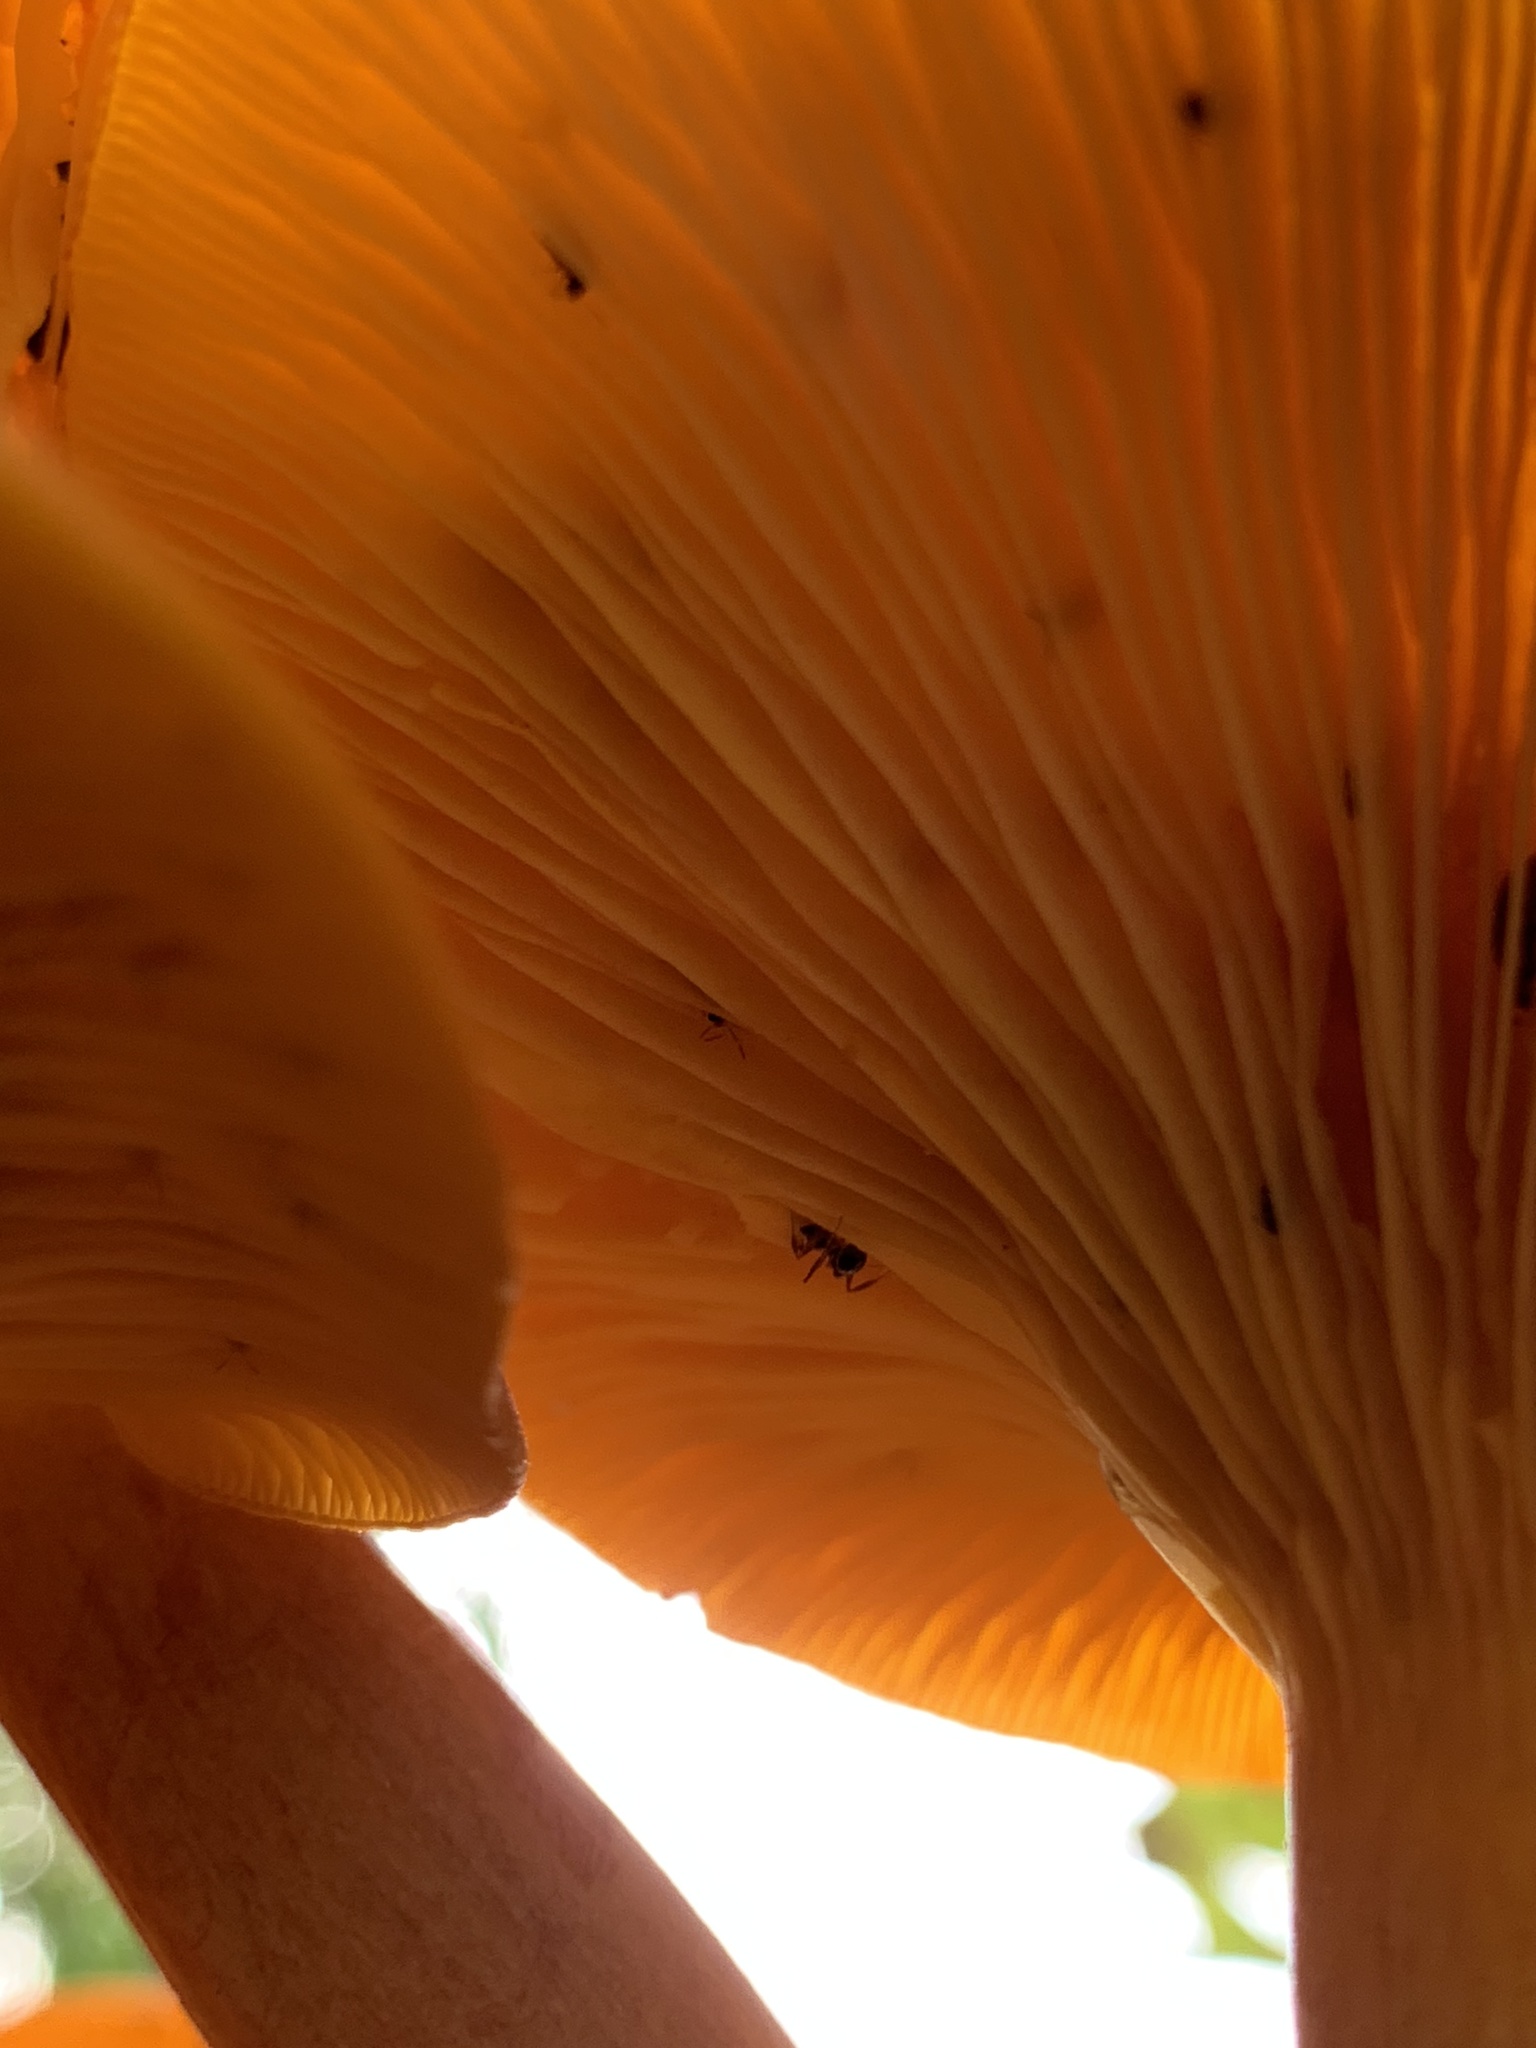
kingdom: Fungi
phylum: Basidiomycota
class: Agaricomycetes
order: Agaricales
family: Omphalotaceae
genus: Omphalotus
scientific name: Omphalotus illudens
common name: Jack o lantern
